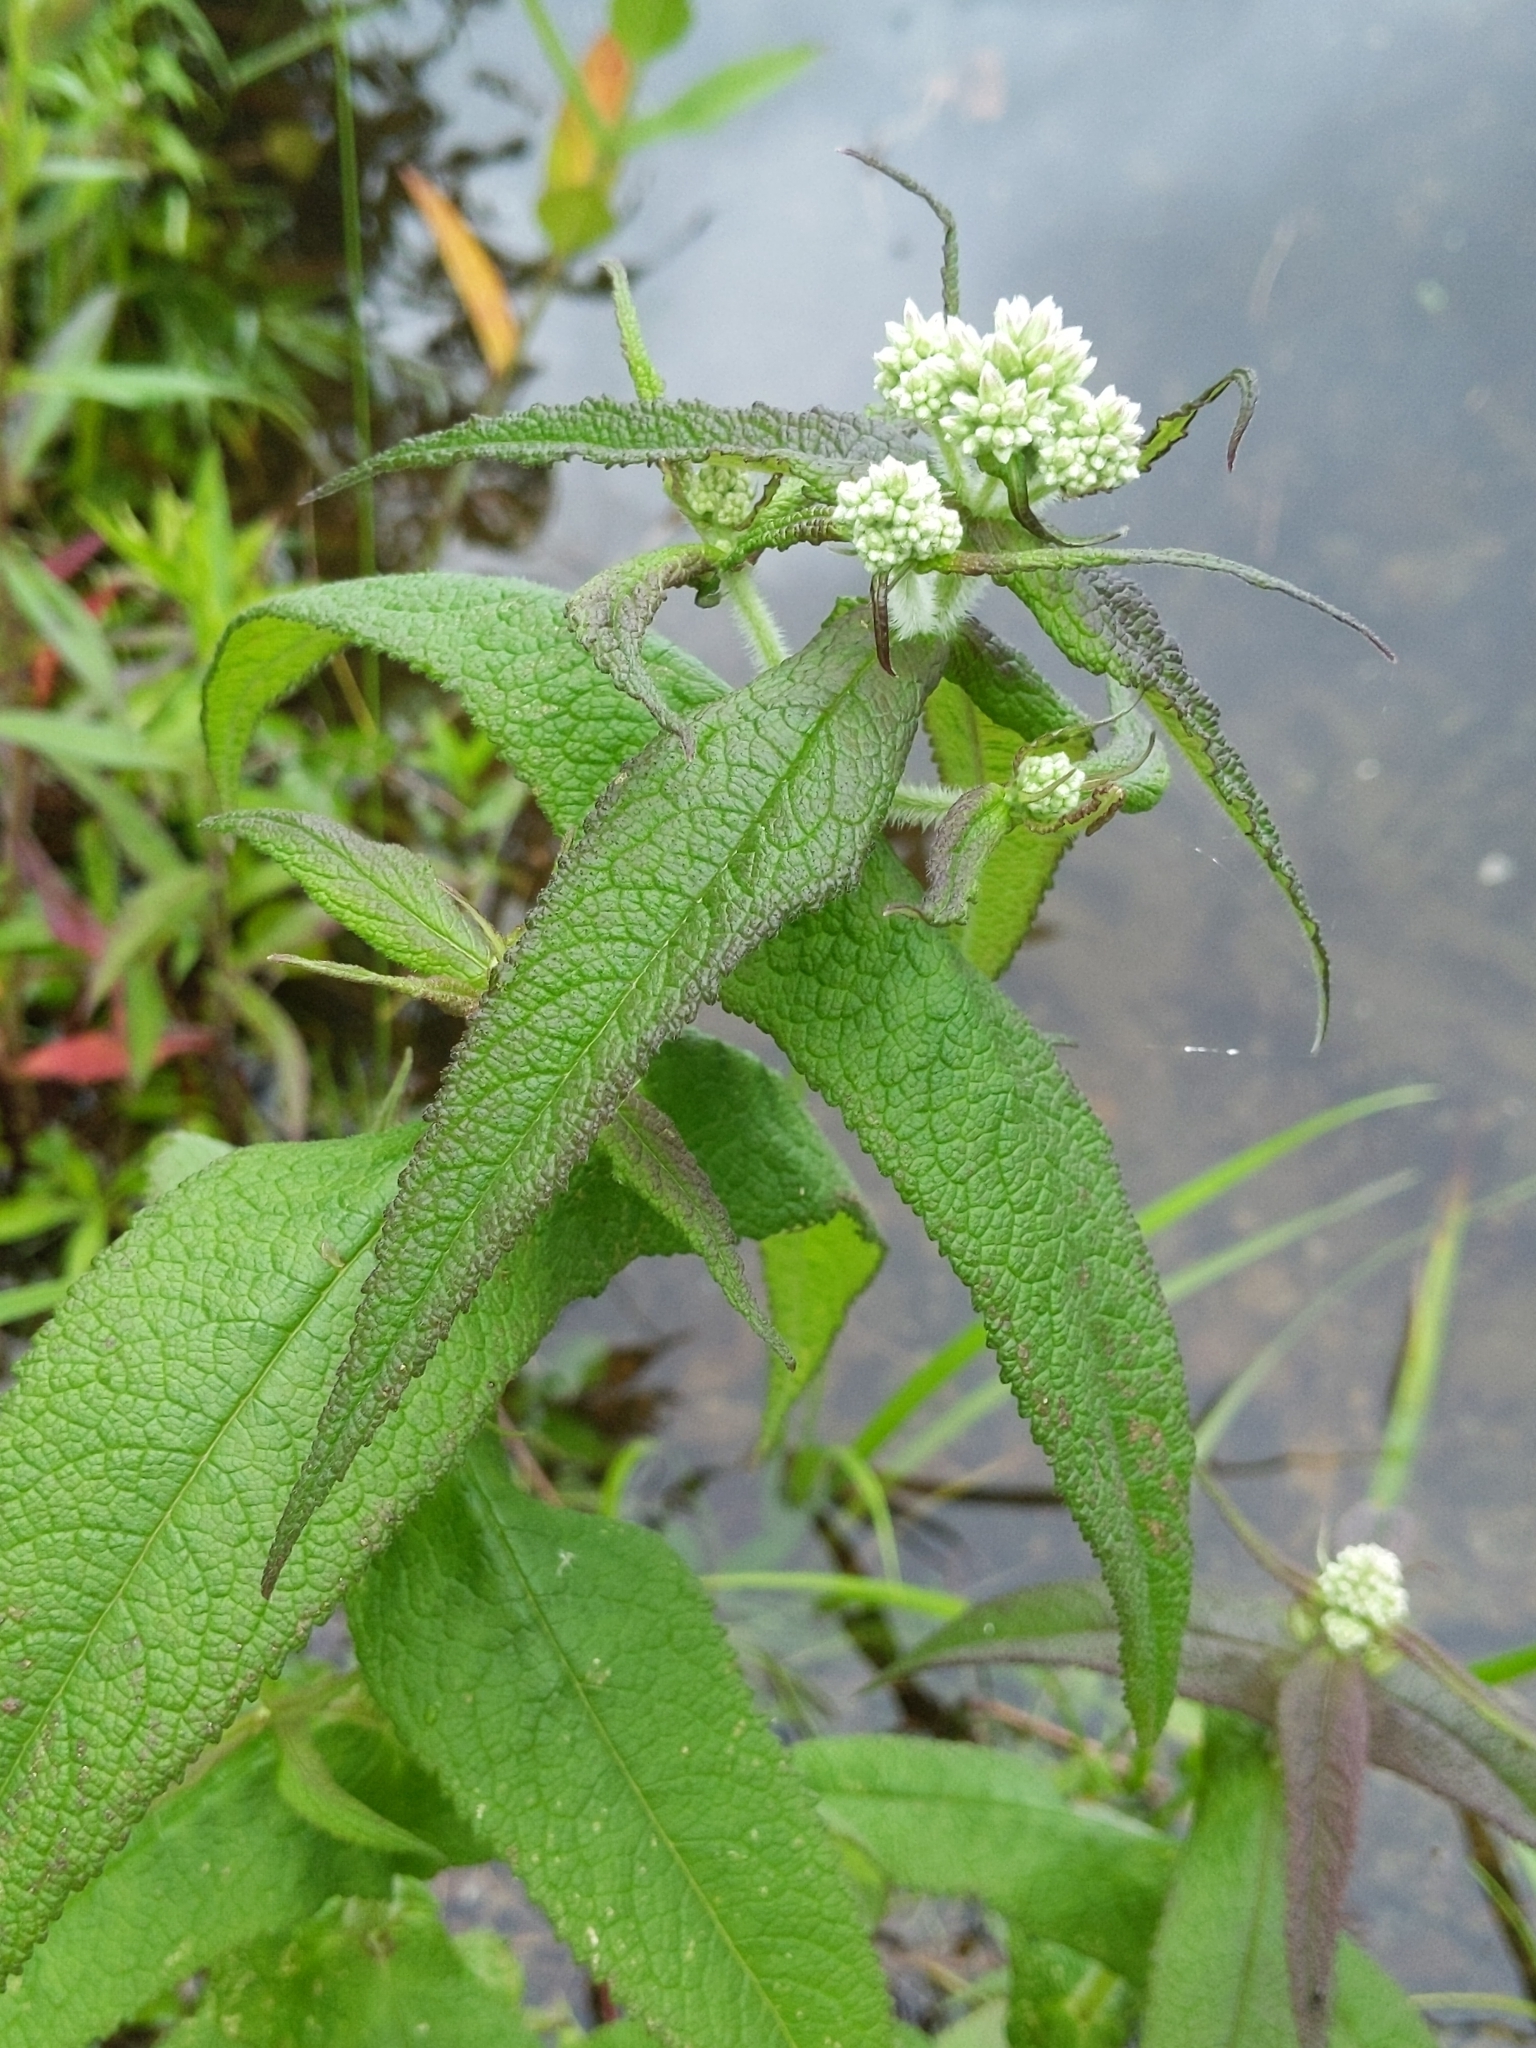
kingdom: Plantae
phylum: Tracheophyta
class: Magnoliopsida
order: Asterales
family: Asteraceae
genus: Eupatorium
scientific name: Eupatorium perfoliatum
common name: Boneset
